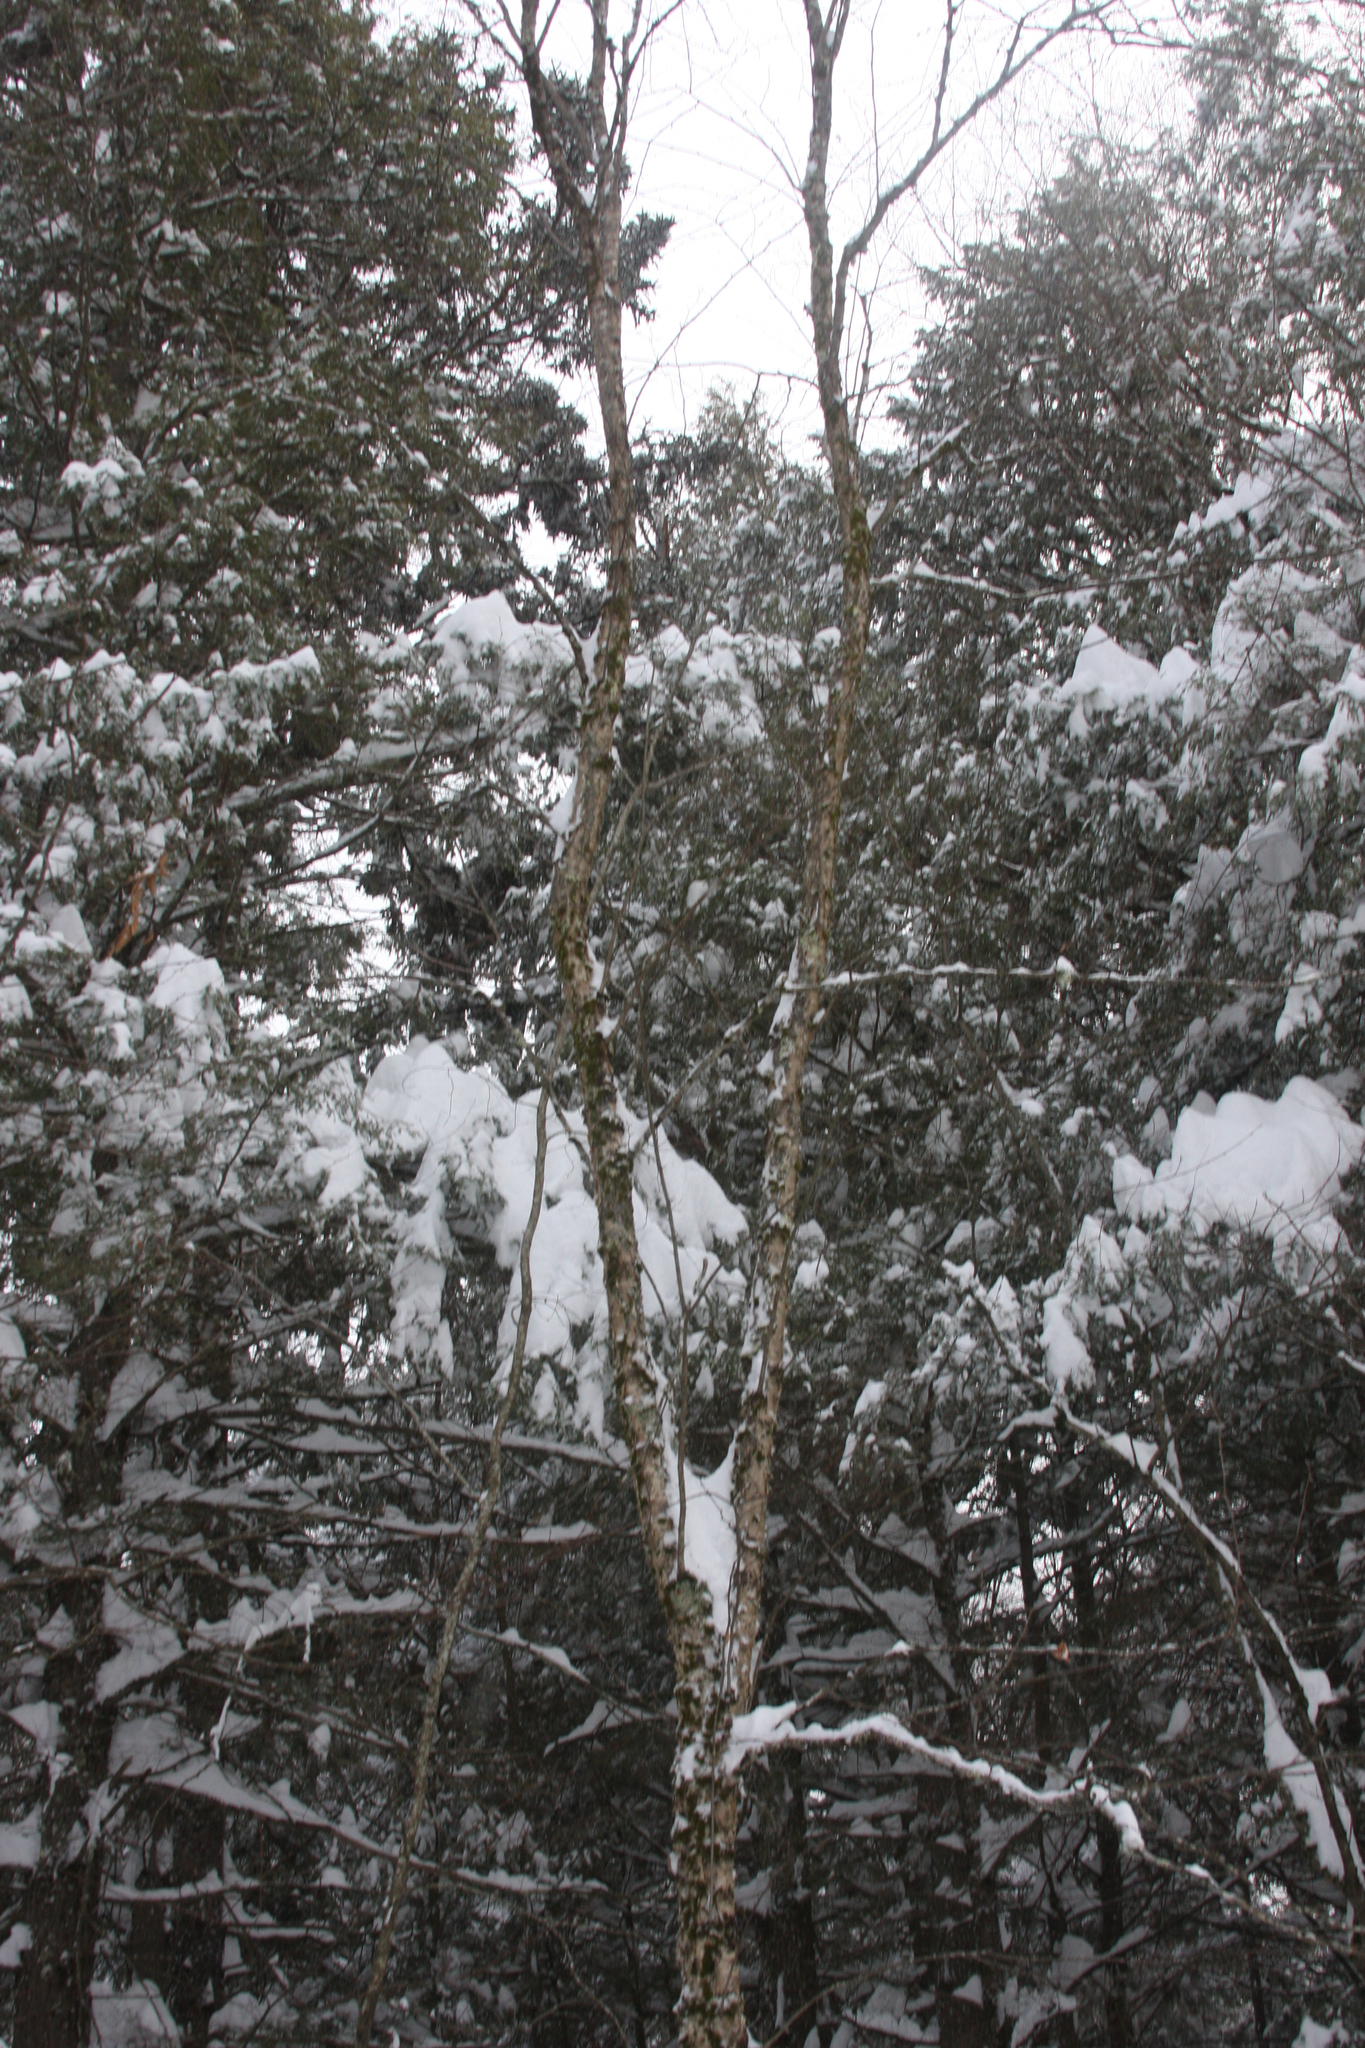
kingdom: Plantae
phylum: Tracheophyta
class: Magnoliopsida
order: Fagales
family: Betulaceae
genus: Betula
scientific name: Betula alleghaniensis
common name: Yellow birch
